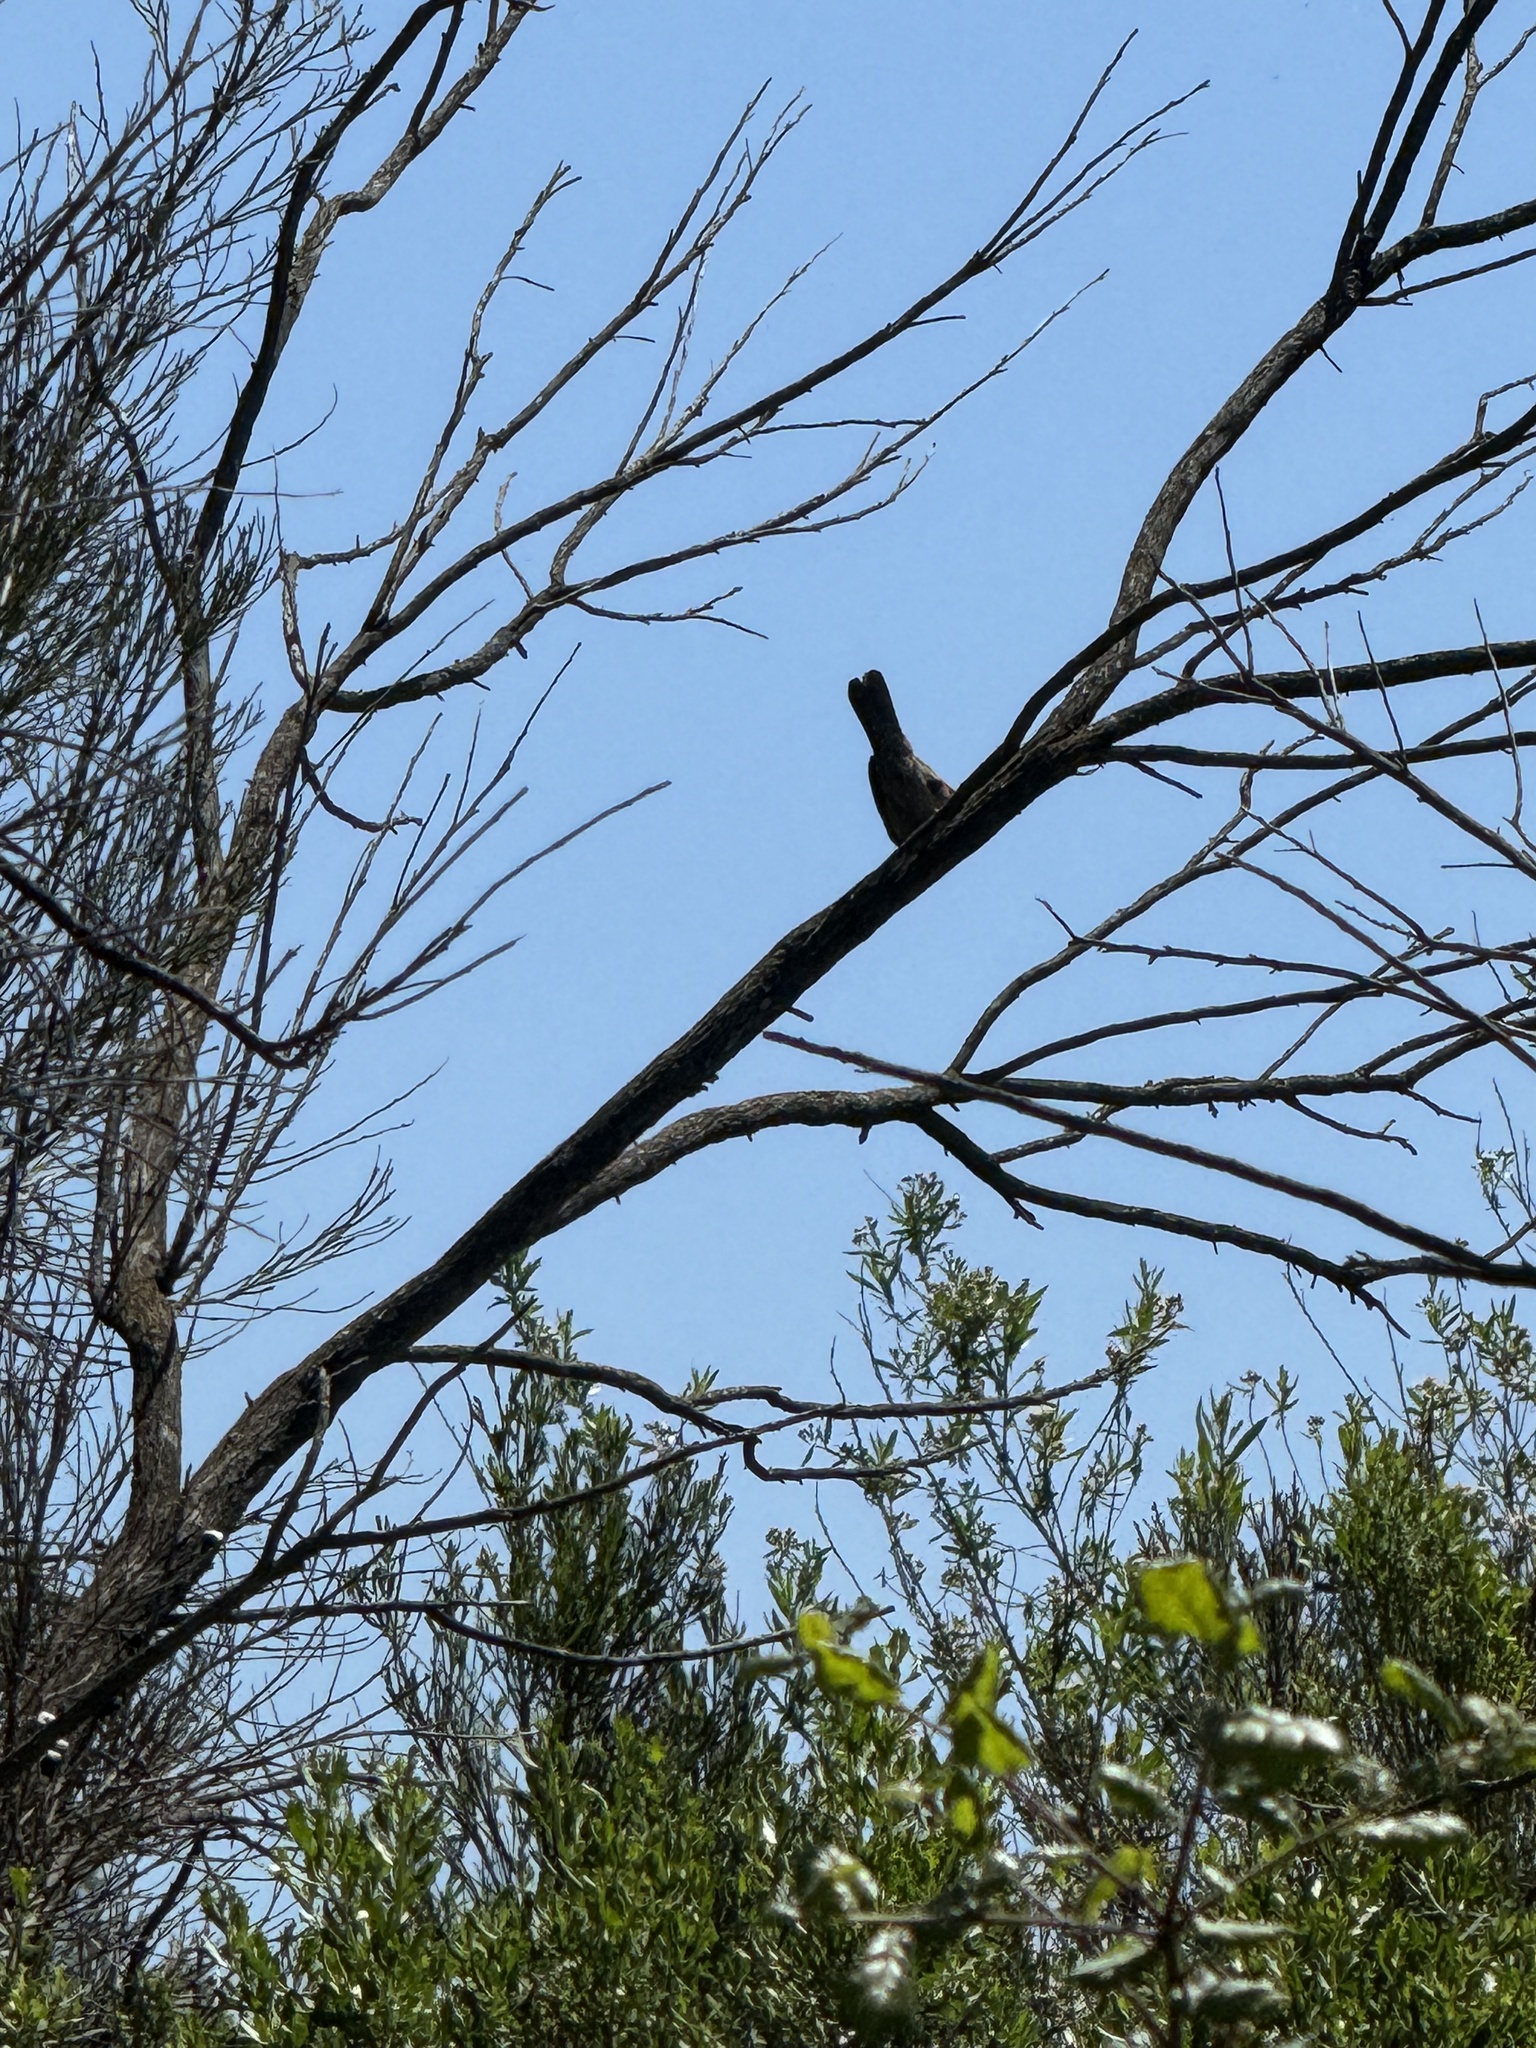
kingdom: Animalia
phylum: Chordata
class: Aves
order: Passeriformes
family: Troglodytidae
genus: Troglodytes
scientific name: Troglodytes aedon
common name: House wren
